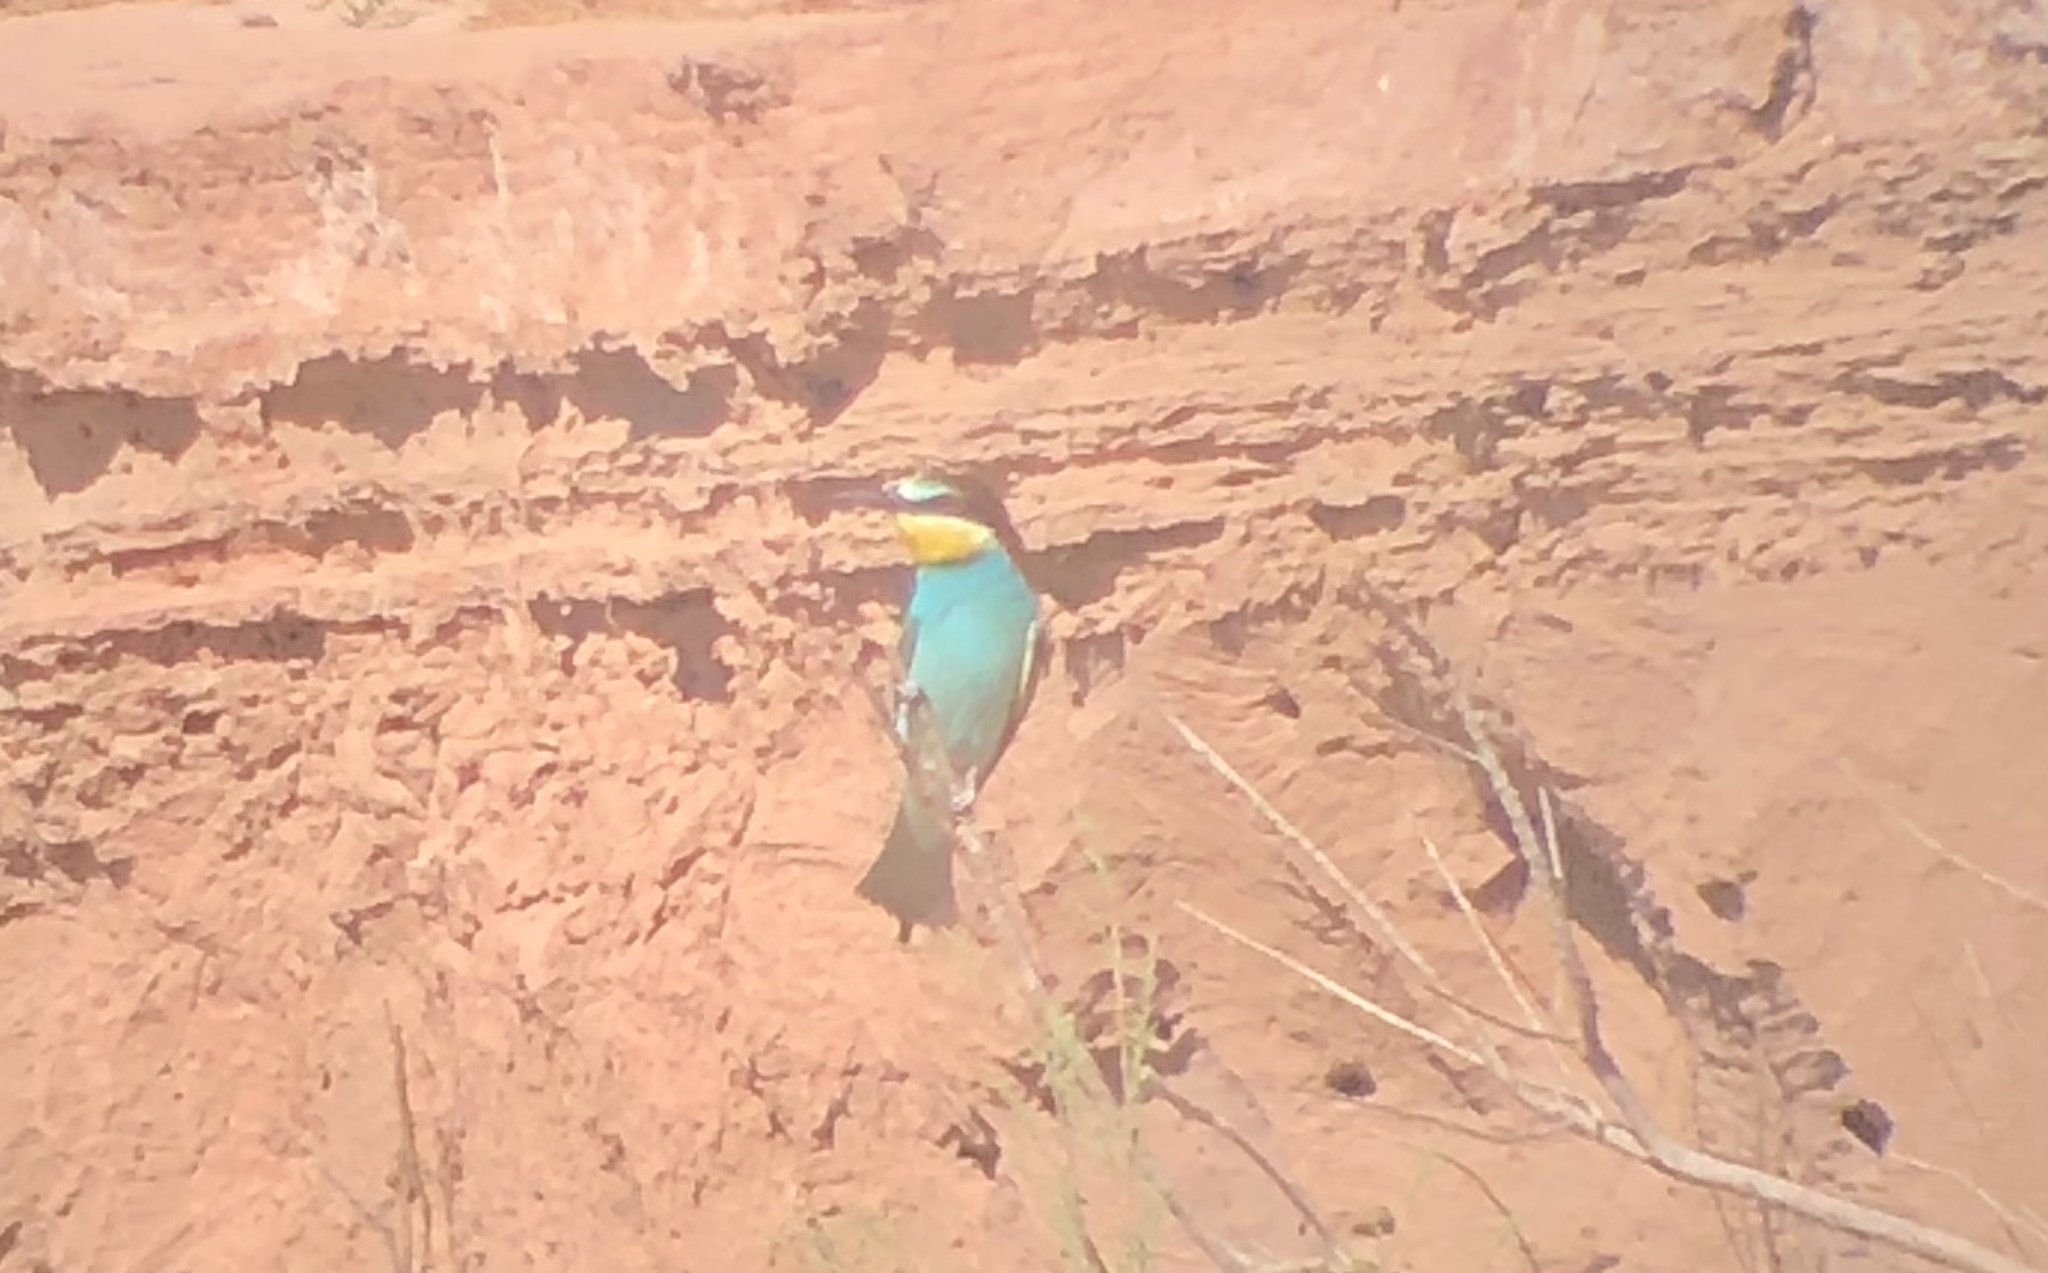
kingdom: Animalia
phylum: Chordata
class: Aves
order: Coraciiformes
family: Meropidae
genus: Merops
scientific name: Merops apiaster
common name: European bee-eater
